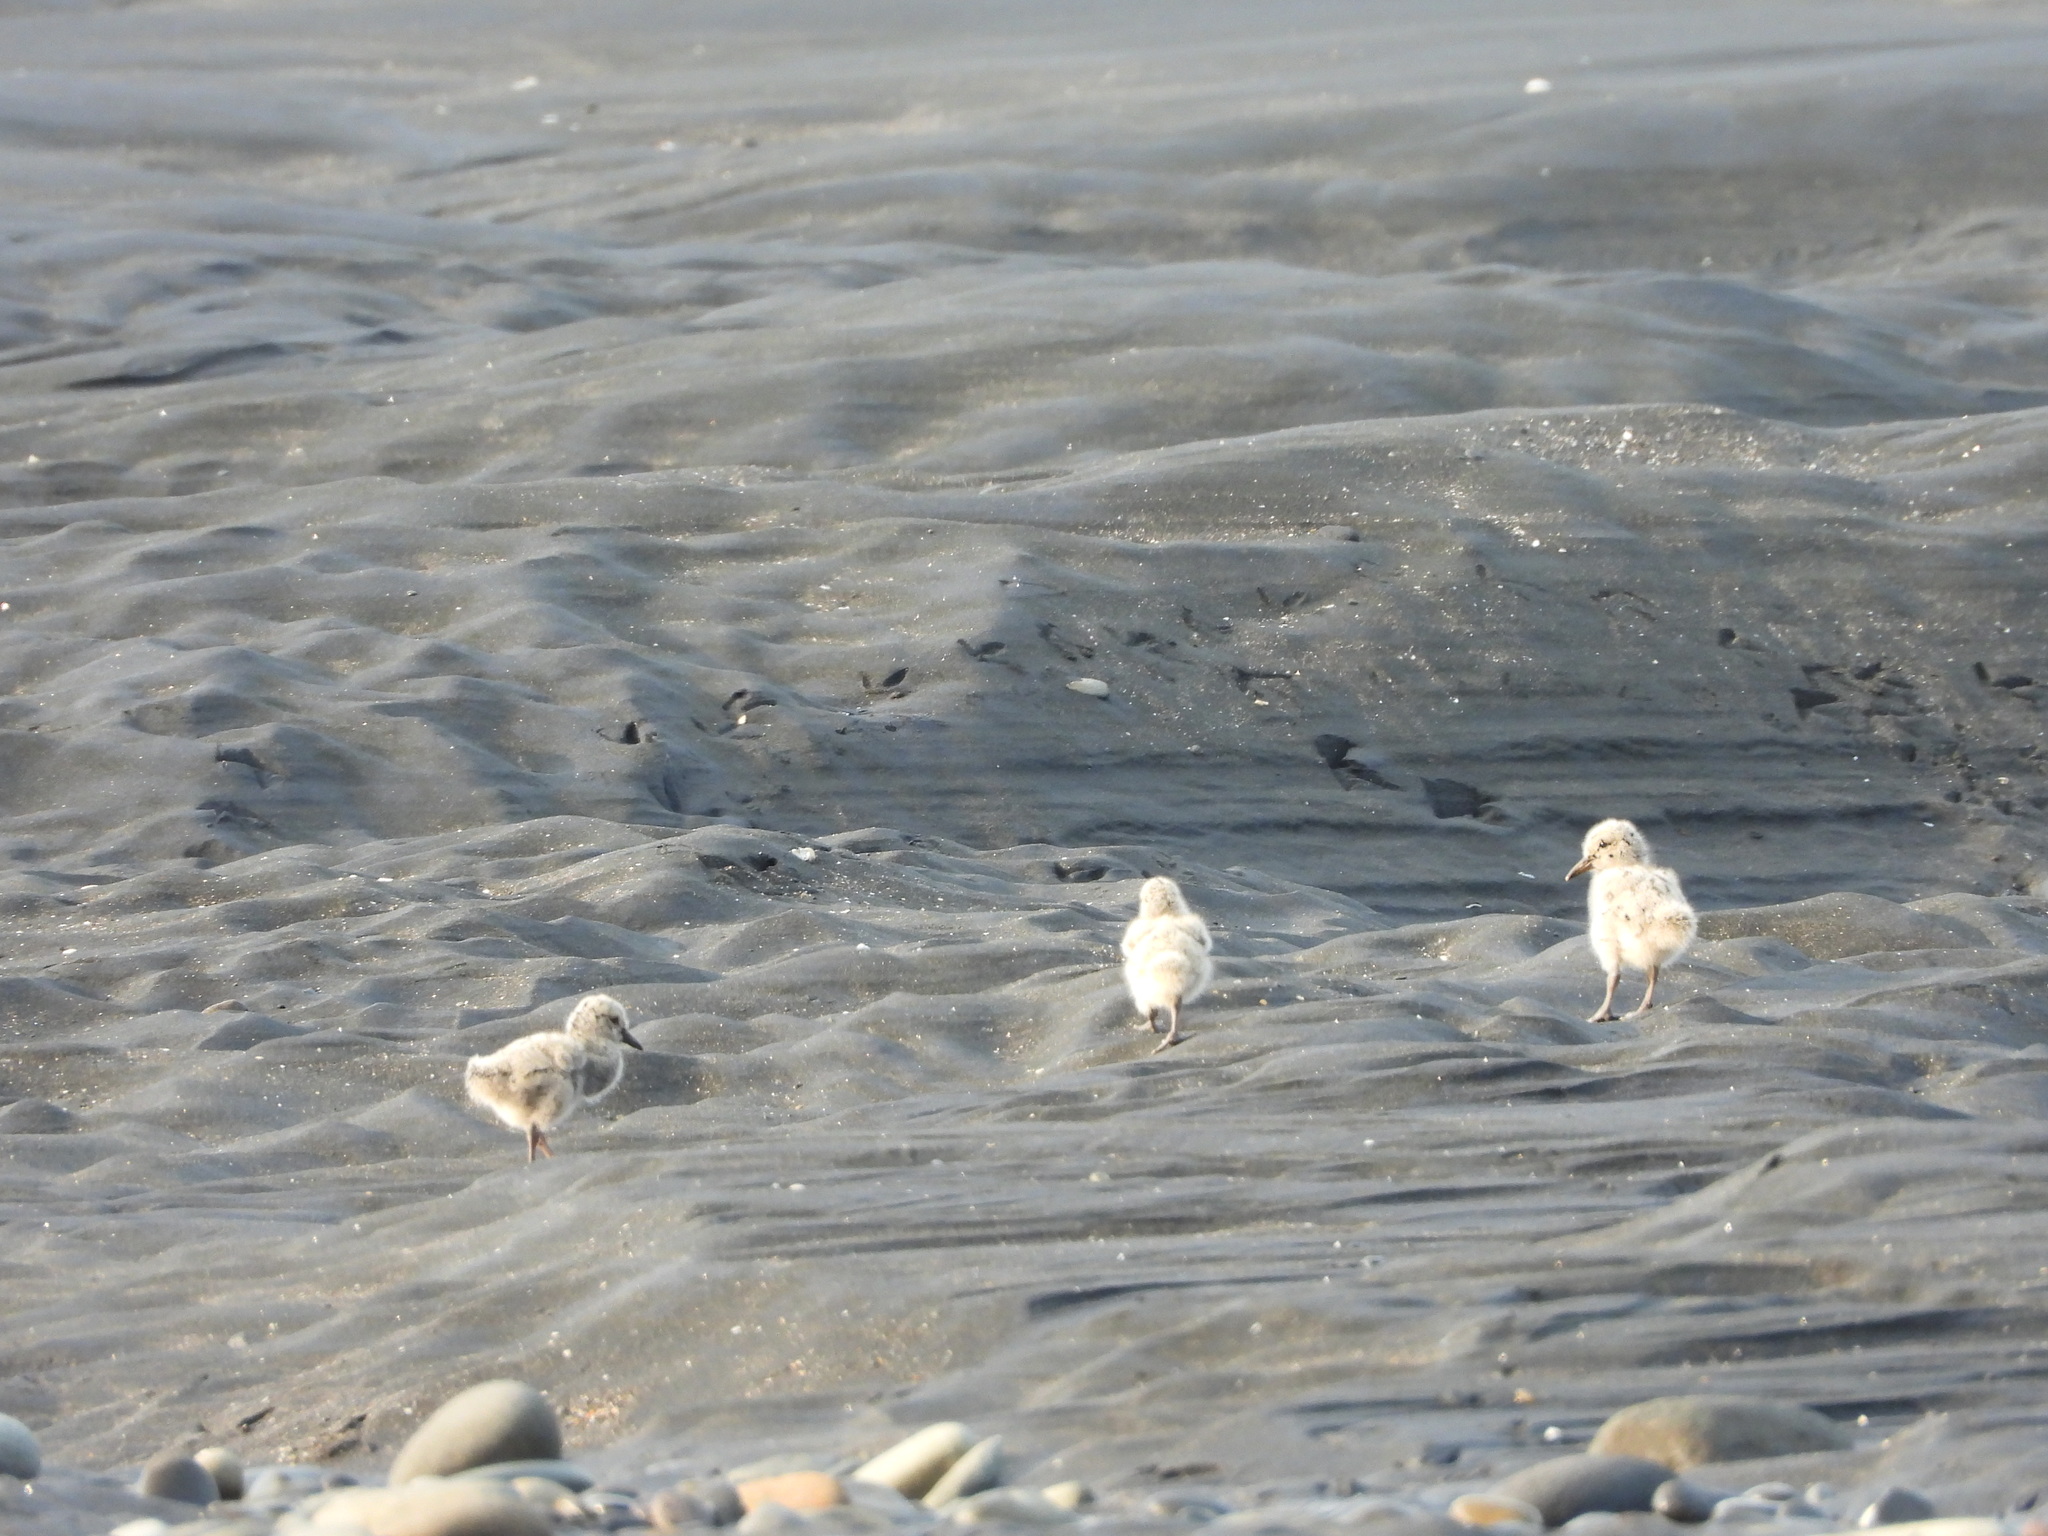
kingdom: Animalia
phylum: Chordata
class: Aves
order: Charadriiformes
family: Haematopodidae
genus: Haematopus
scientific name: Haematopus unicolor
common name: Variable oystercatcher
